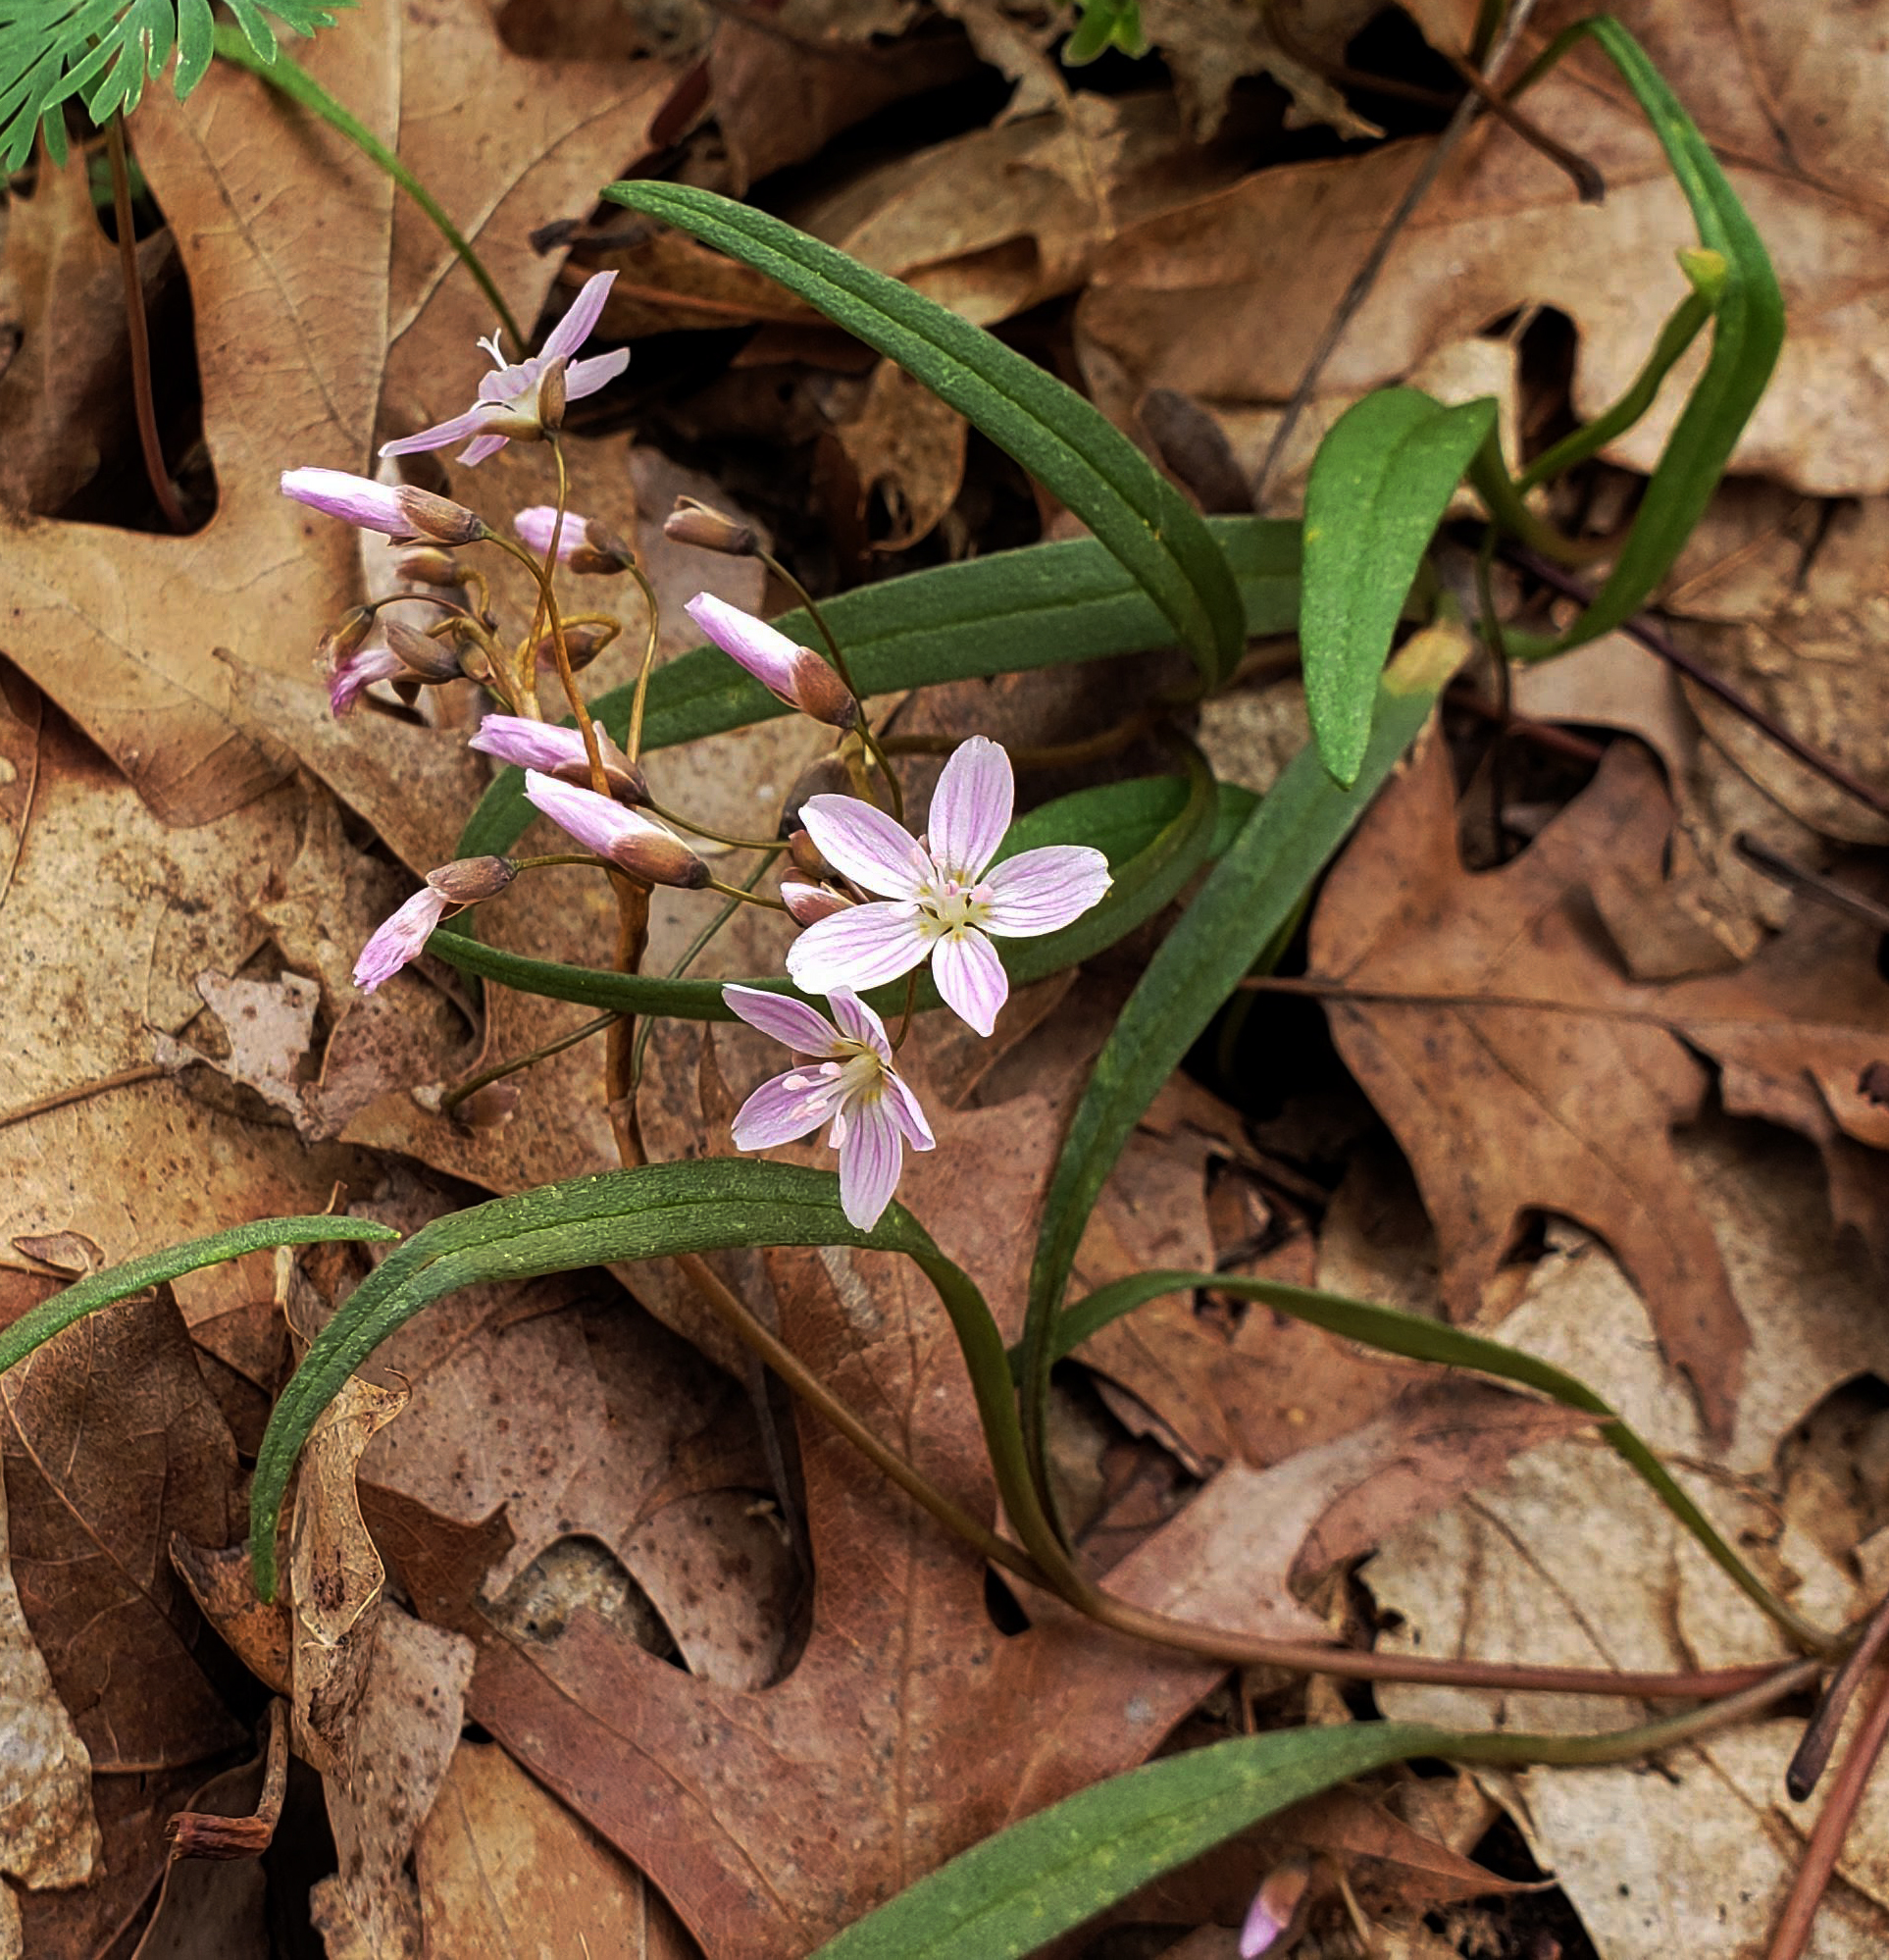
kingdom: Plantae
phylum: Tracheophyta
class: Magnoliopsida
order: Caryophyllales
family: Montiaceae
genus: Claytonia
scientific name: Claytonia virginica
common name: Virginia springbeauty
